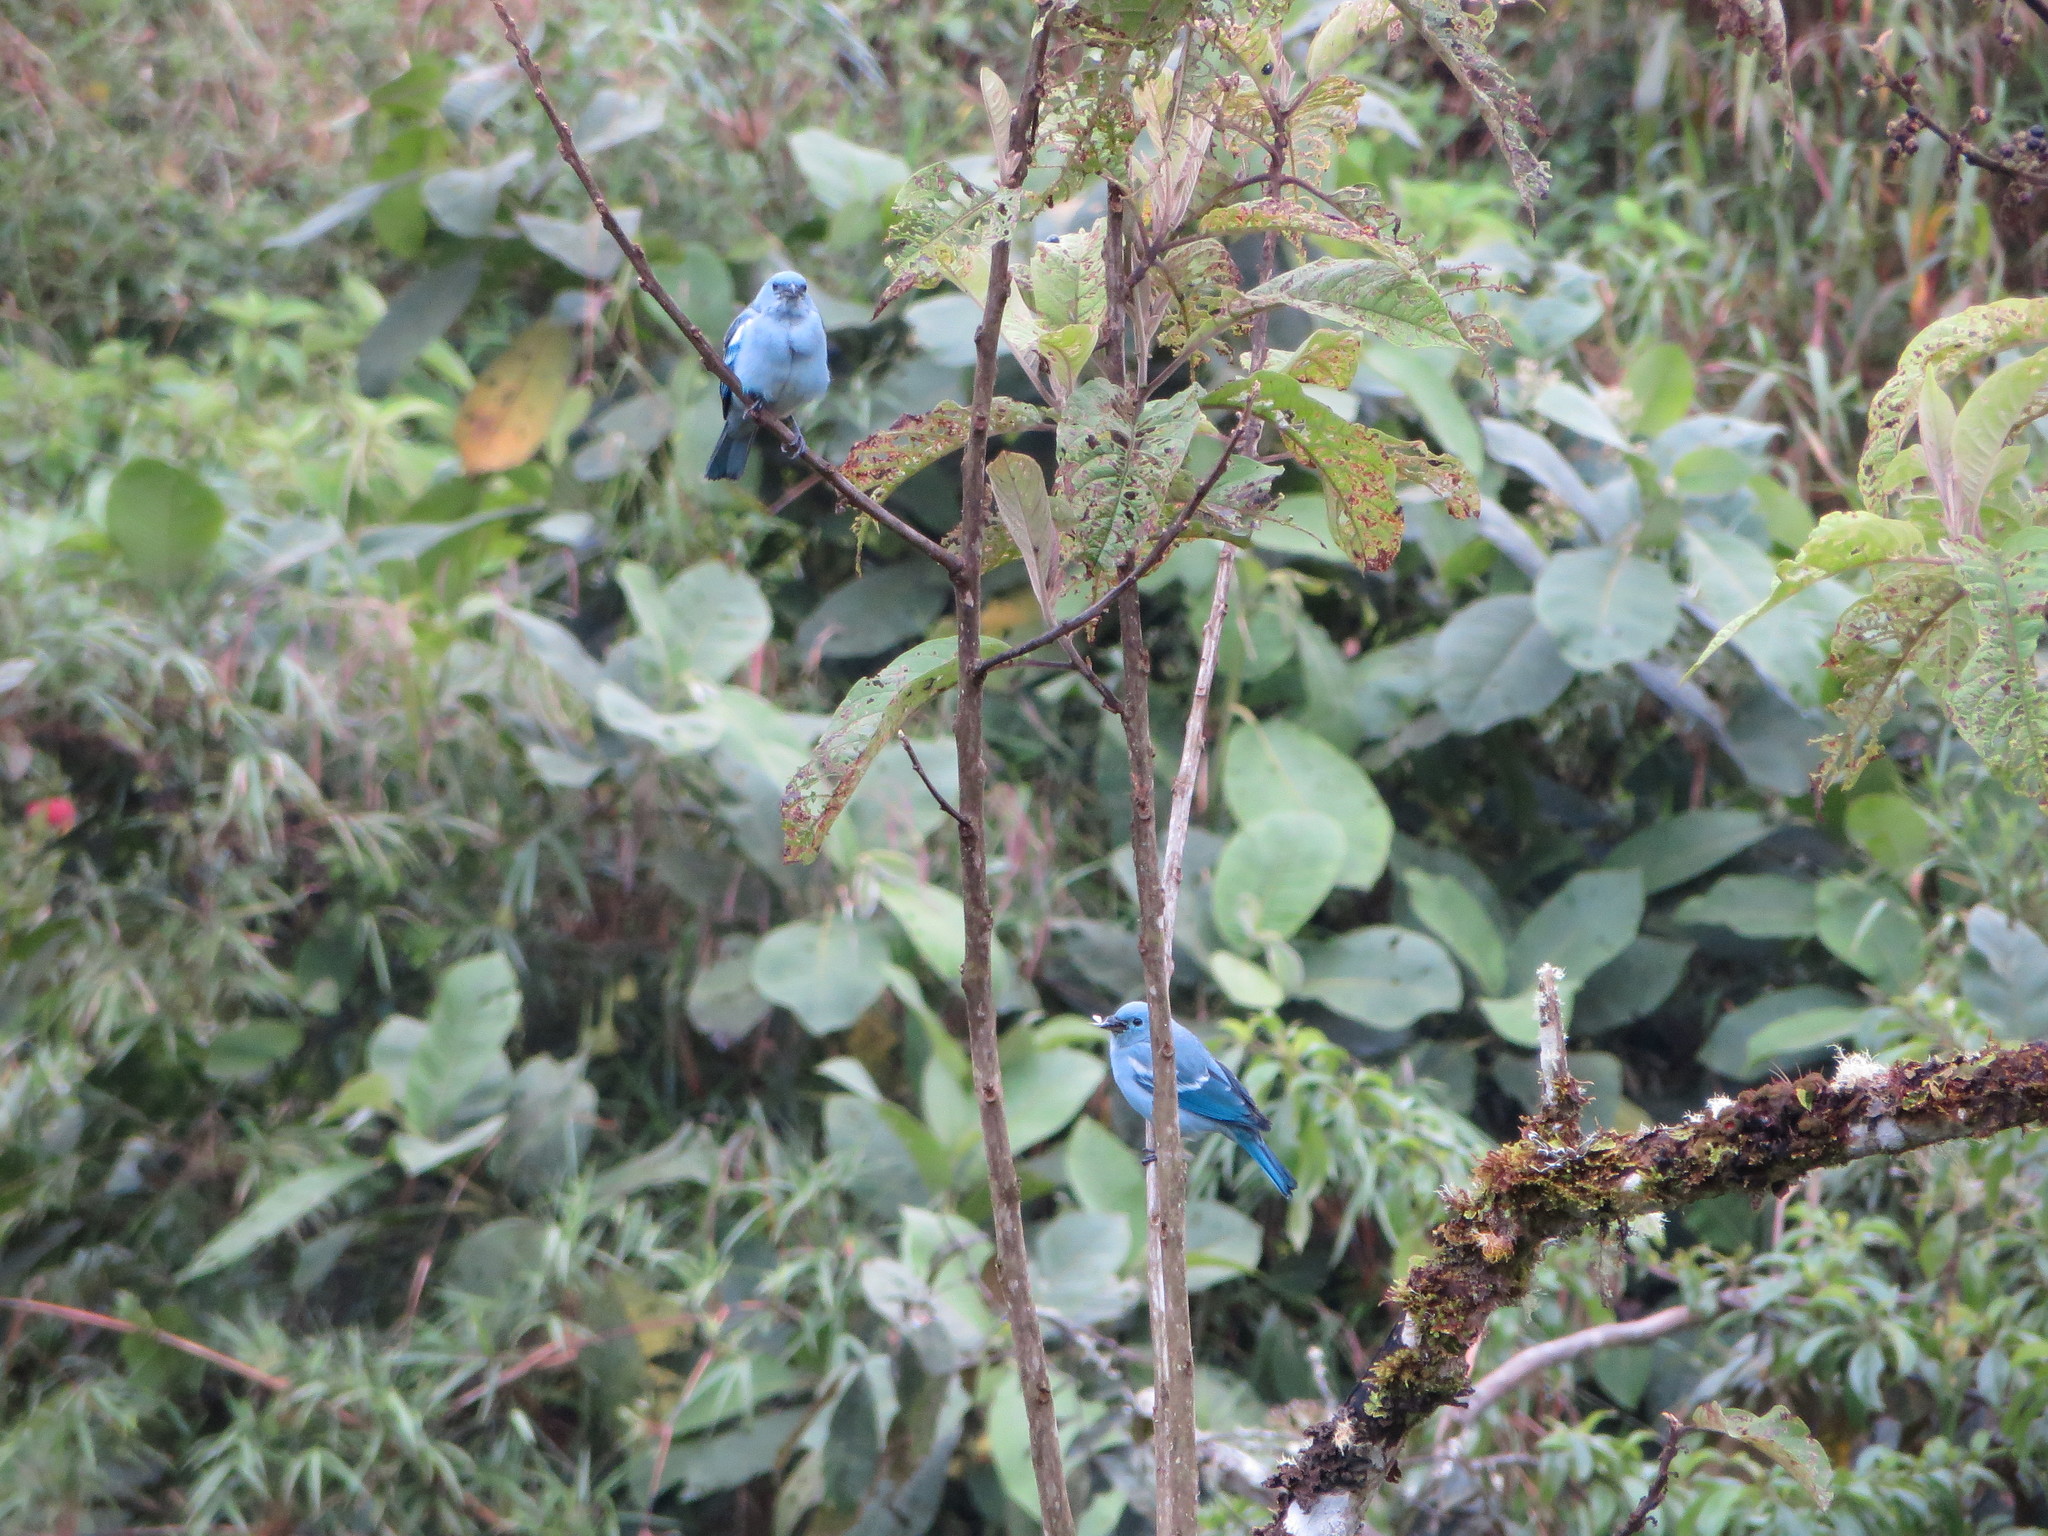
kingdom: Animalia
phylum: Chordata
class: Aves
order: Passeriformes
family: Thraupidae
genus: Thraupis
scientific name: Thraupis episcopus
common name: Blue-grey tanager
